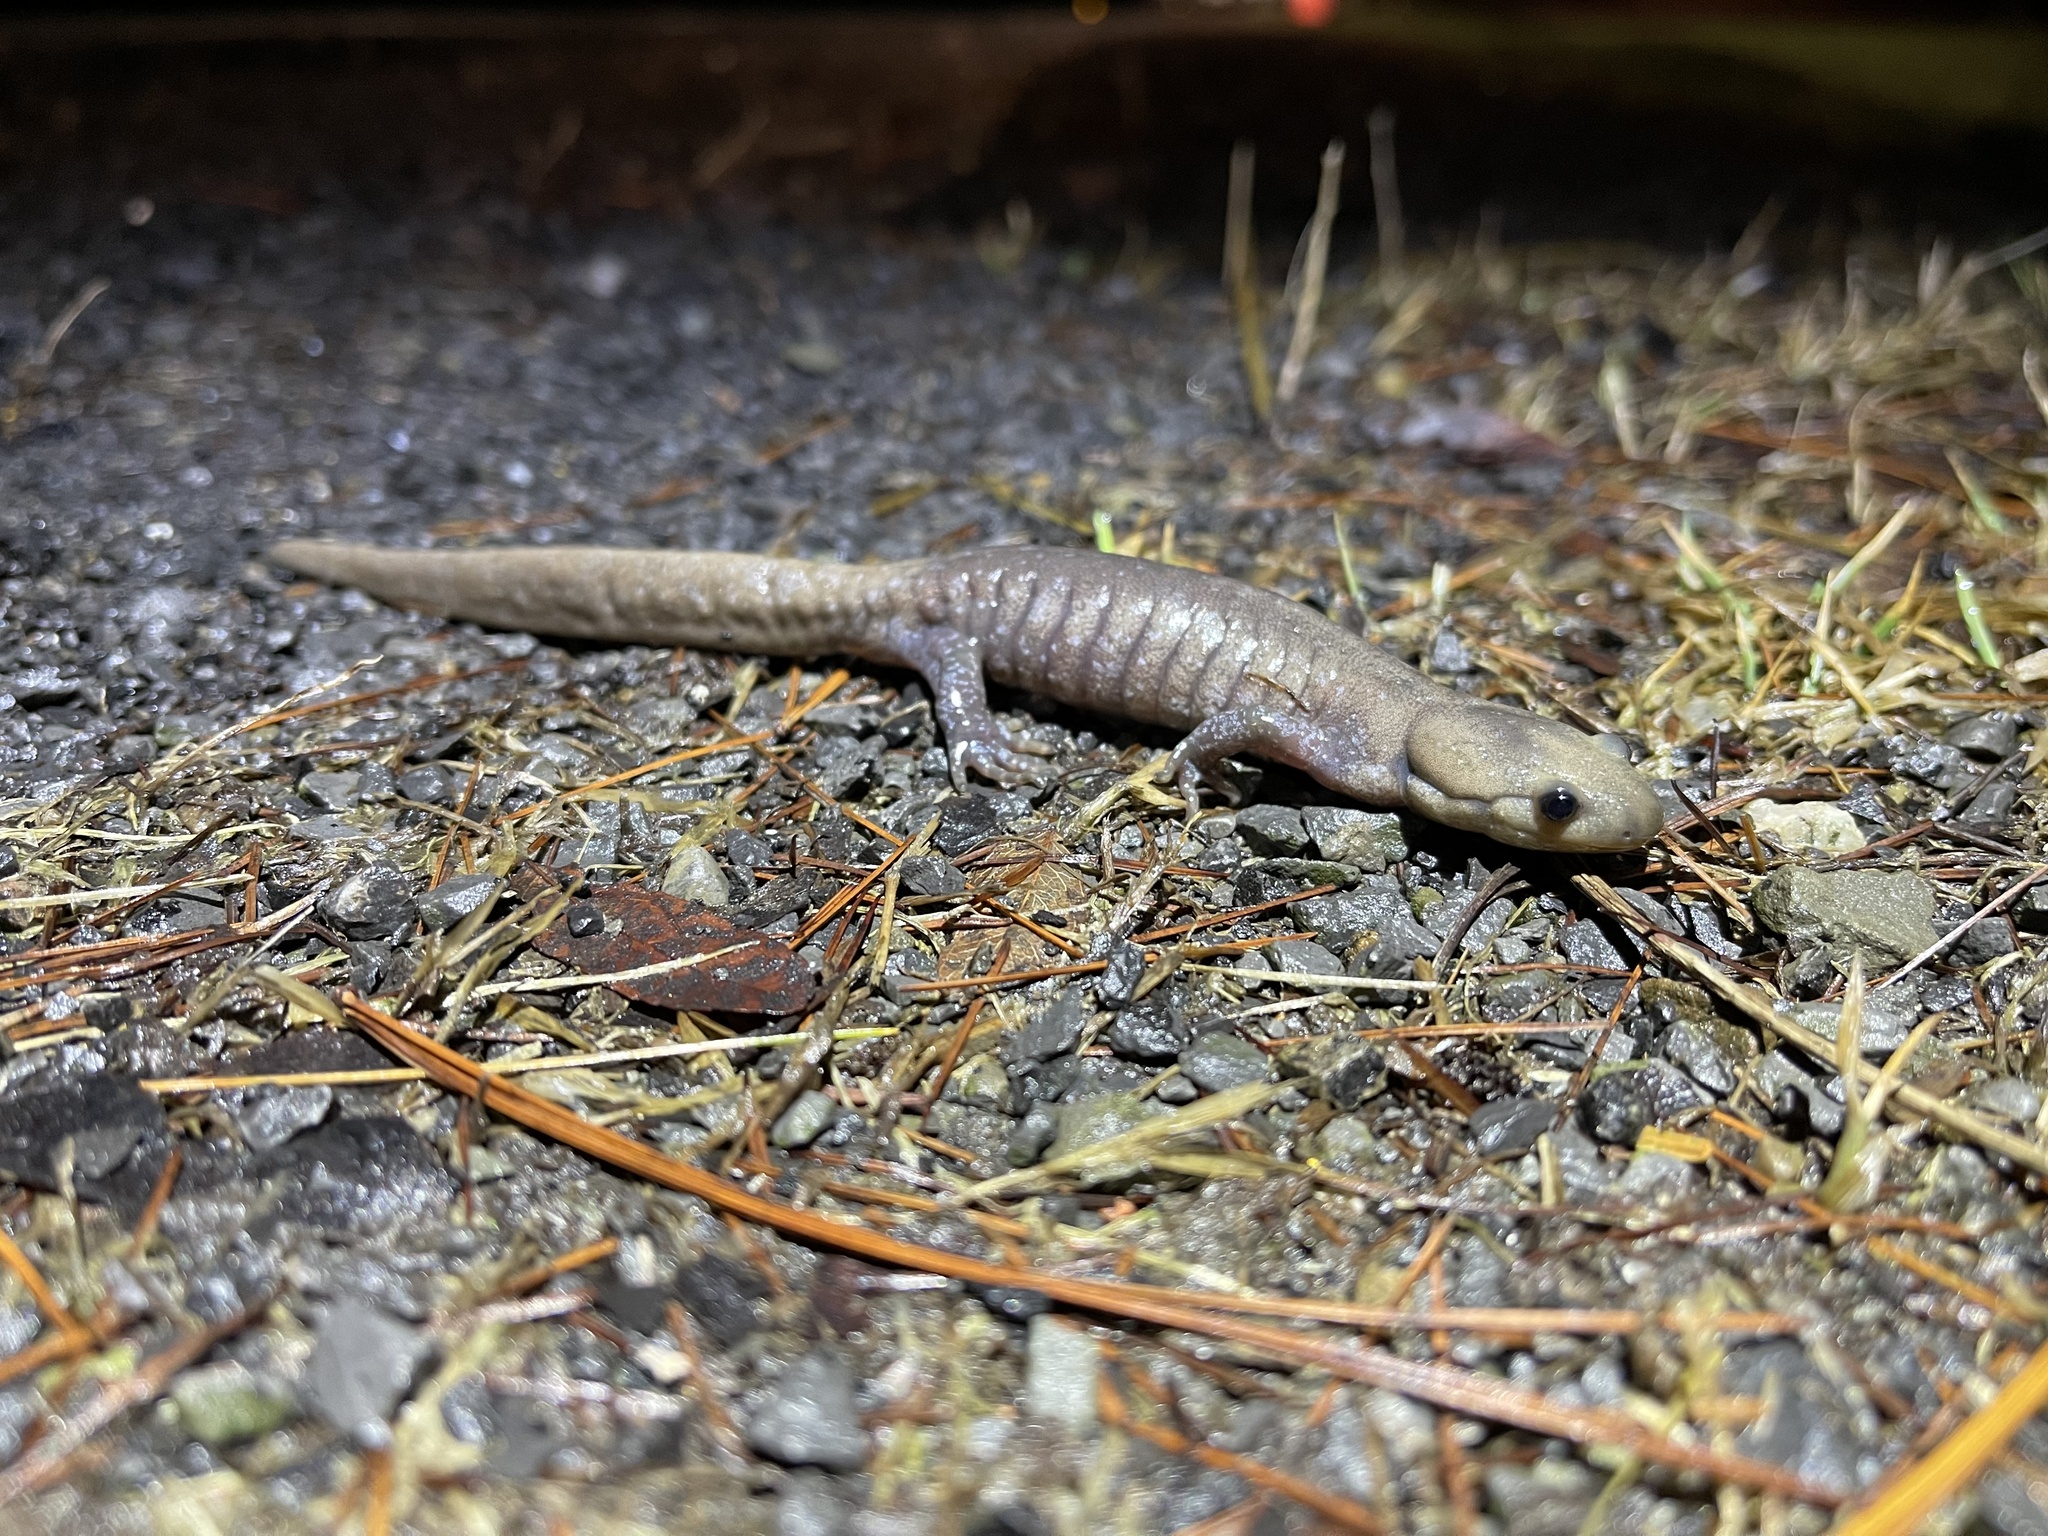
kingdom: Animalia
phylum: Chordata
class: Amphibia
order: Caudata
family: Ambystomatidae
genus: Ambystoma
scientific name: Ambystoma jeffersonianum
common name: Jefferson salamander
